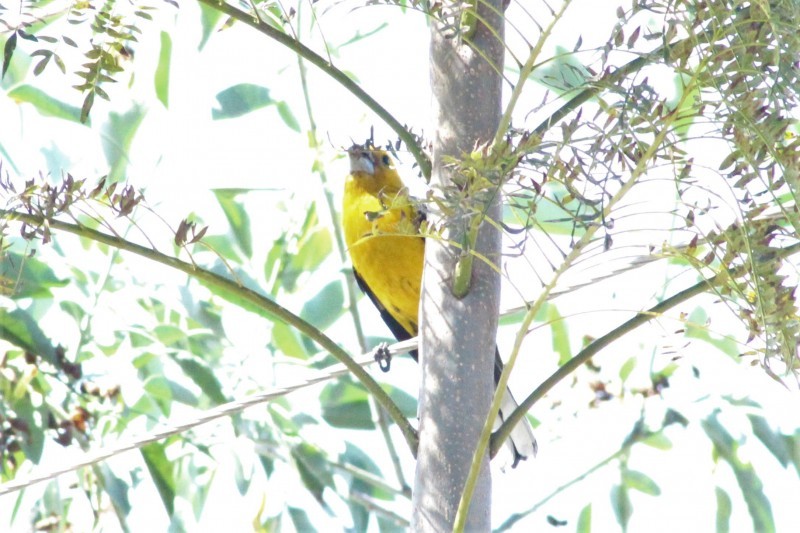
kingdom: Animalia
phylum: Chordata
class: Aves
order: Passeriformes
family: Cardinalidae
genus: Pheucticus
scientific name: Pheucticus chrysogaster
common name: Golden grosbeak
